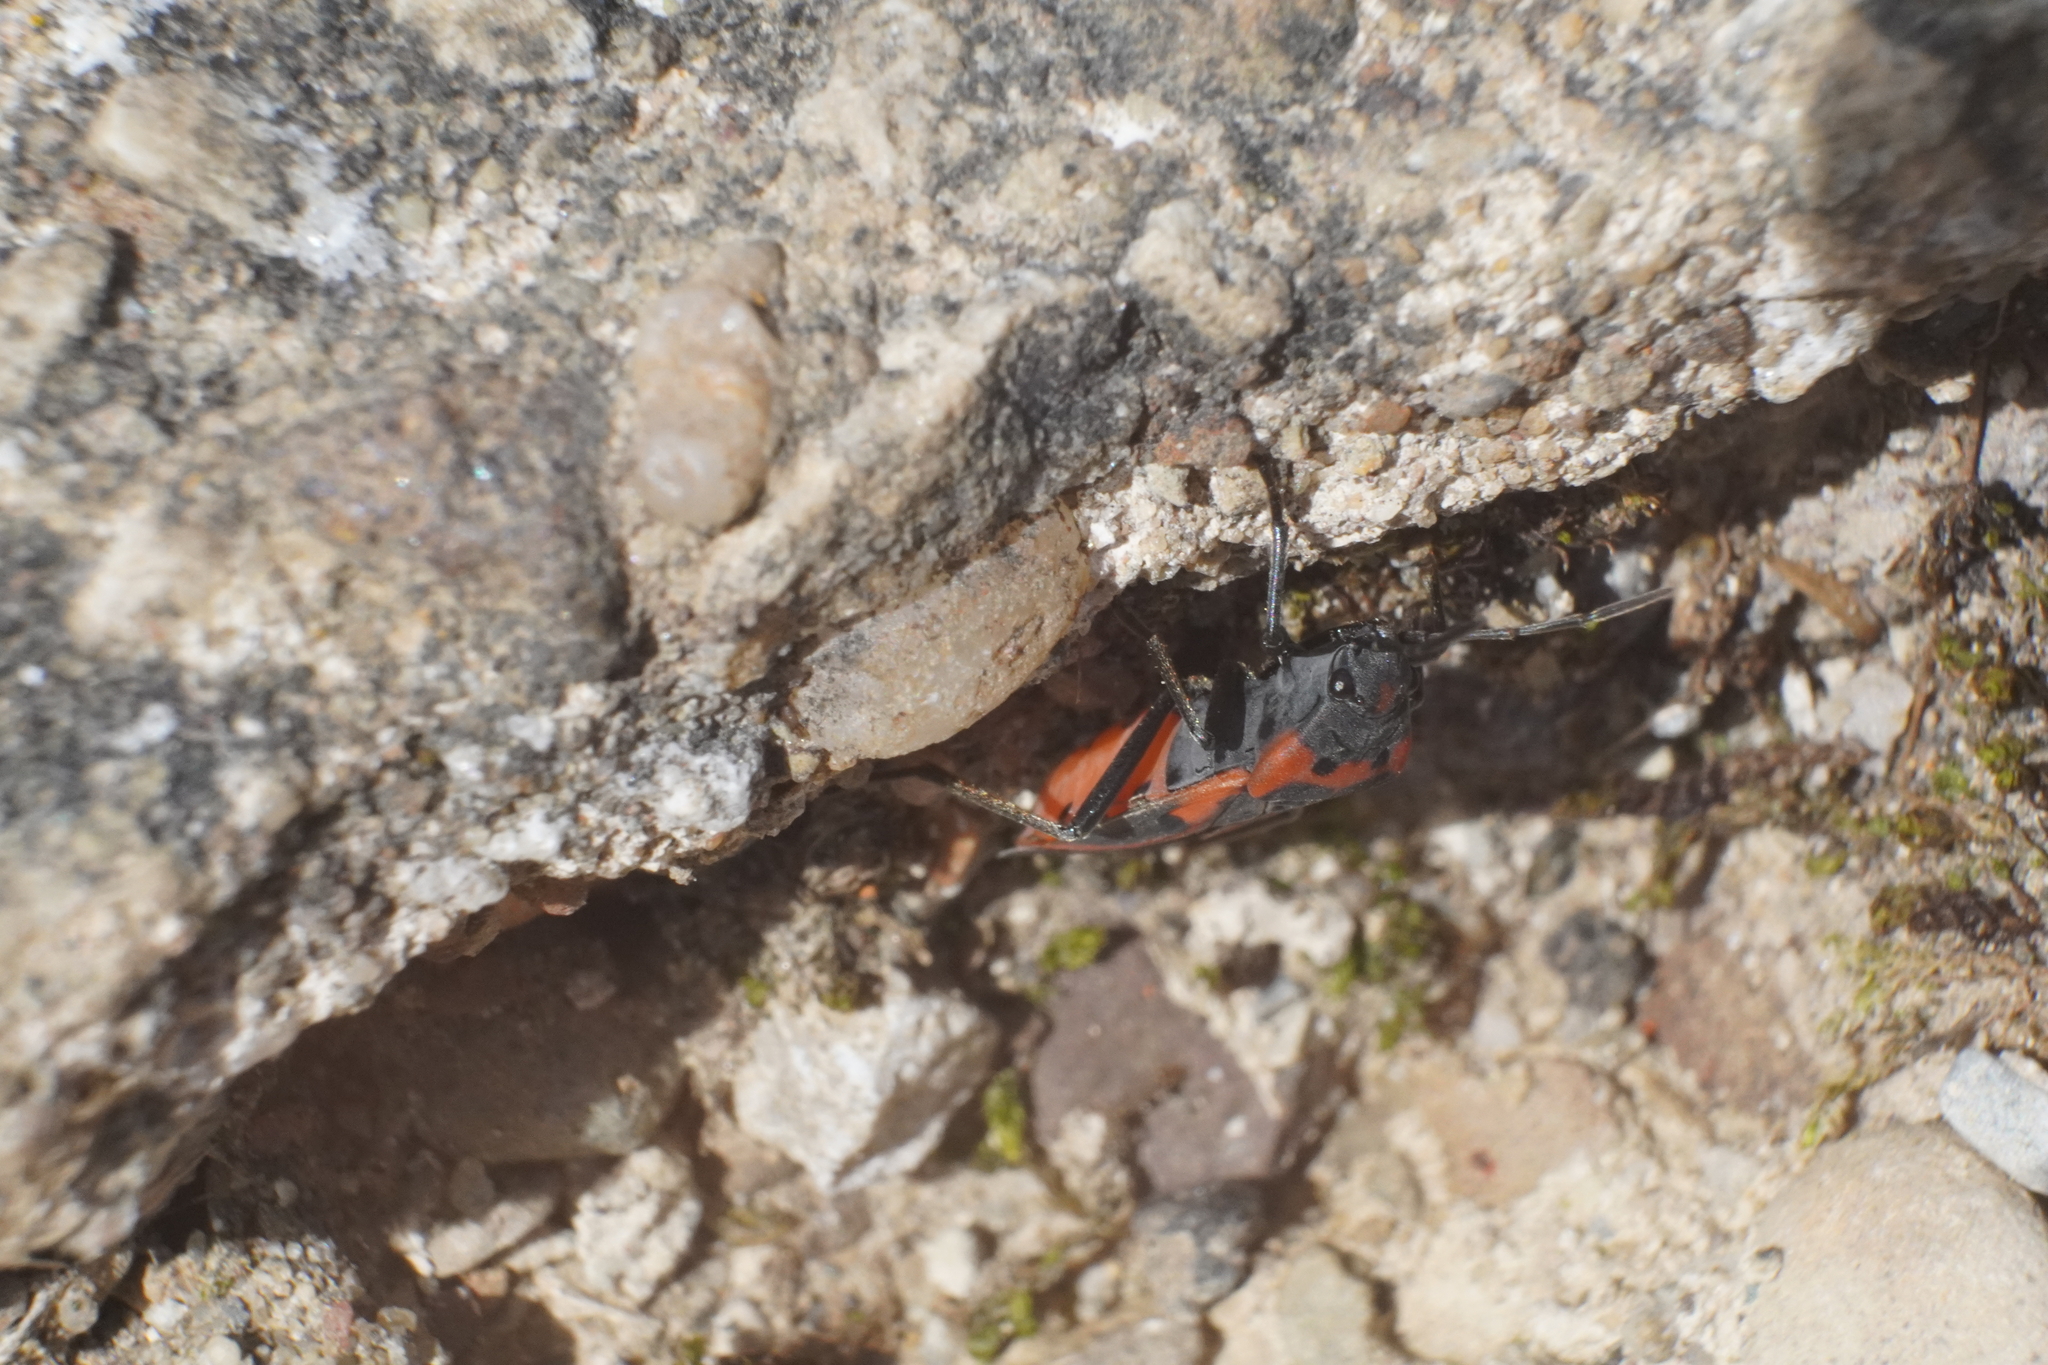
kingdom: Animalia
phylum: Arthropoda
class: Insecta
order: Hemiptera
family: Lygaeidae
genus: Lygaeus
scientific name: Lygaeus kalmii
